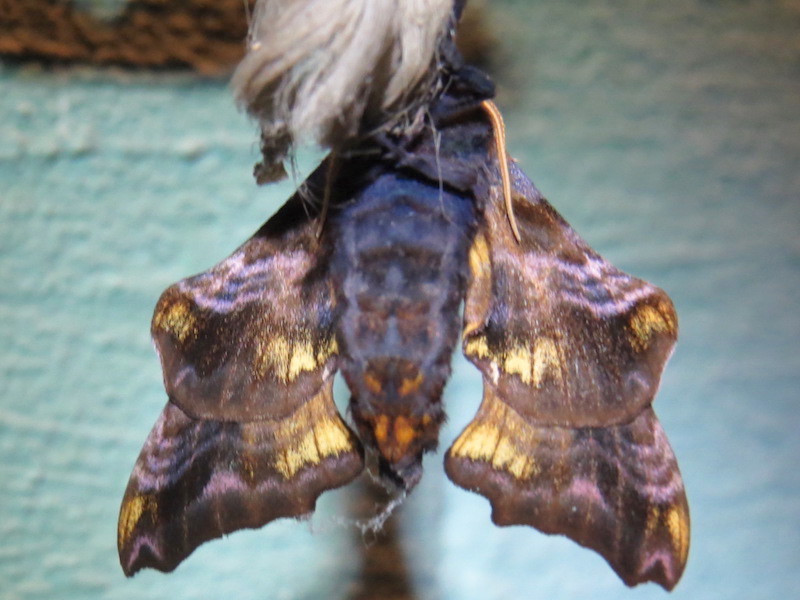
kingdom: Animalia
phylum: Arthropoda
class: Insecta
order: Lepidoptera
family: Sphingidae
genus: Paonias
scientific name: Paonias myops
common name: Small-eyed sphinx
